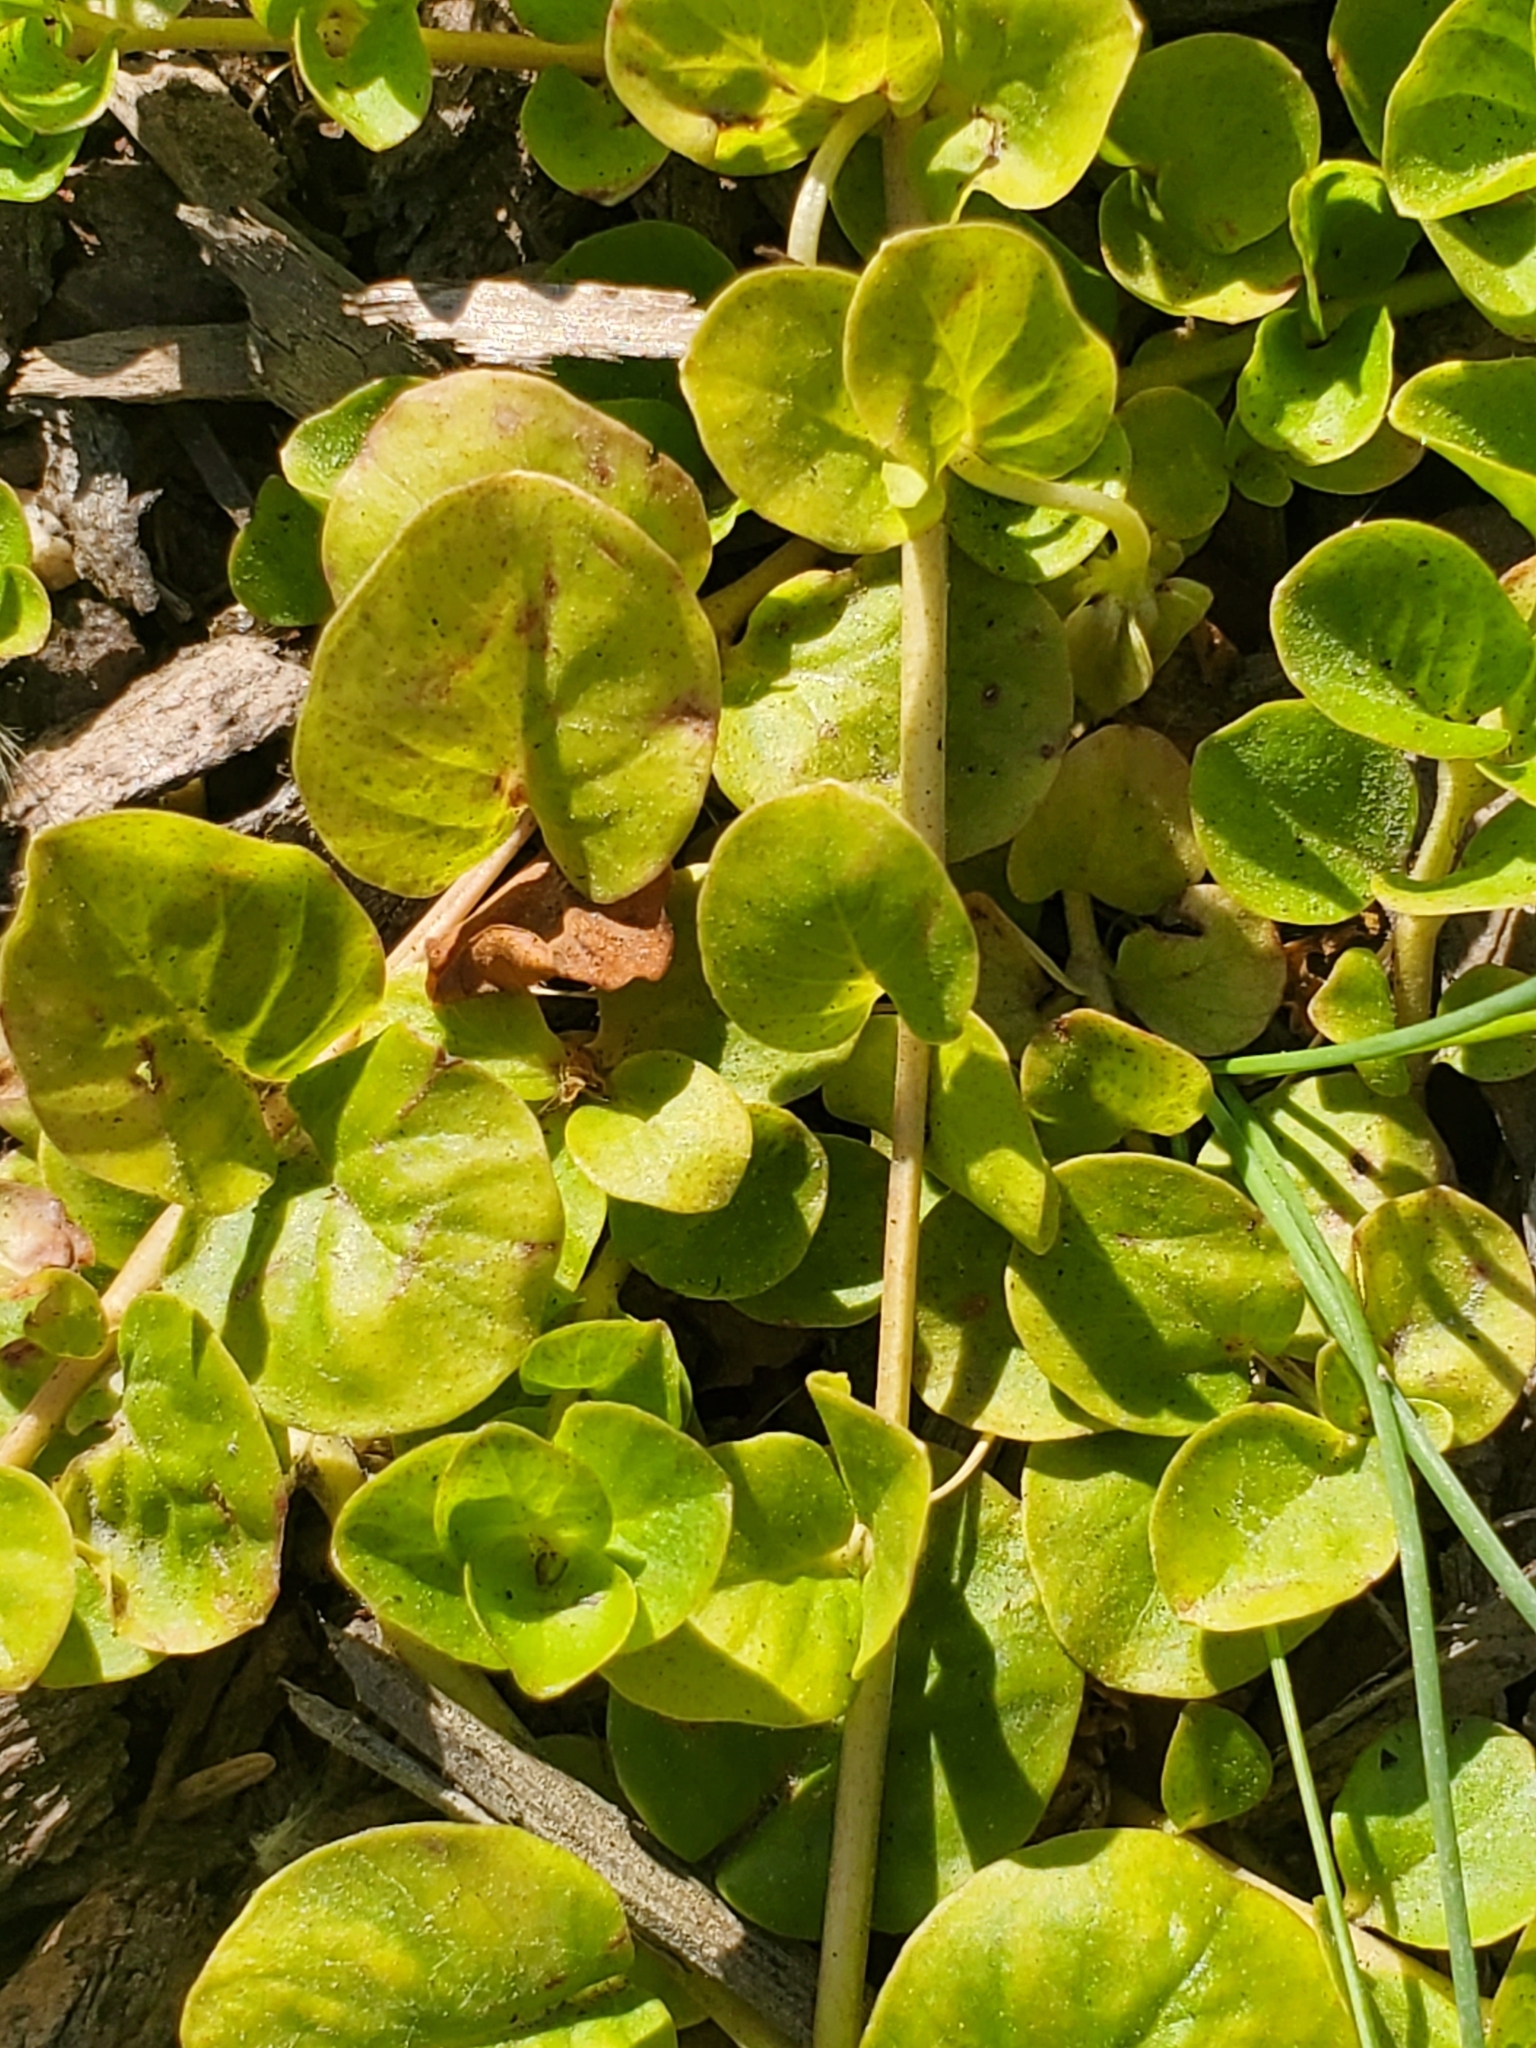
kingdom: Plantae
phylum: Tracheophyta
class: Magnoliopsida
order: Ericales
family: Primulaceae
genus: Lysimachia
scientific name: Lysimachia nummularia
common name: Moneywort
